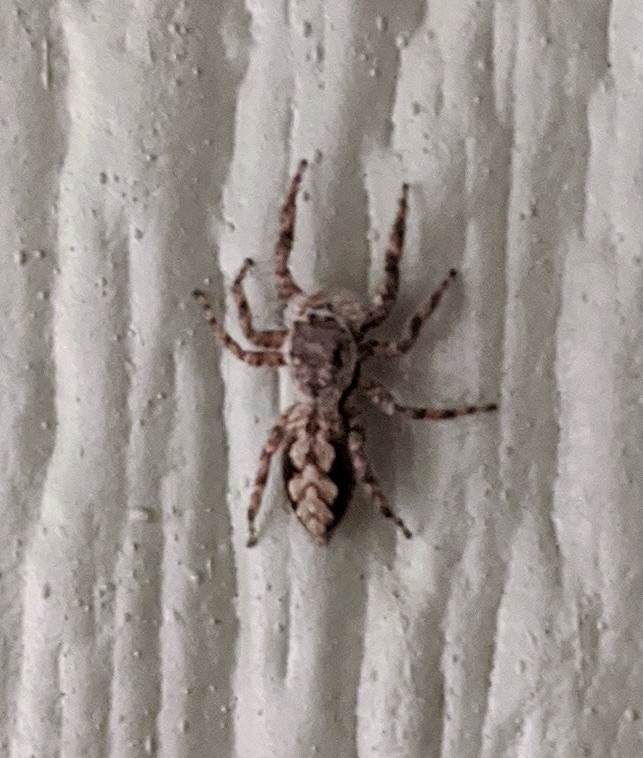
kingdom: Animalia
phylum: Arthropoda
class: Arachnida
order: Araneae
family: Salticidae
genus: Platycryptus
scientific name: Platycryptus undatus
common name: Tan jumping spider
